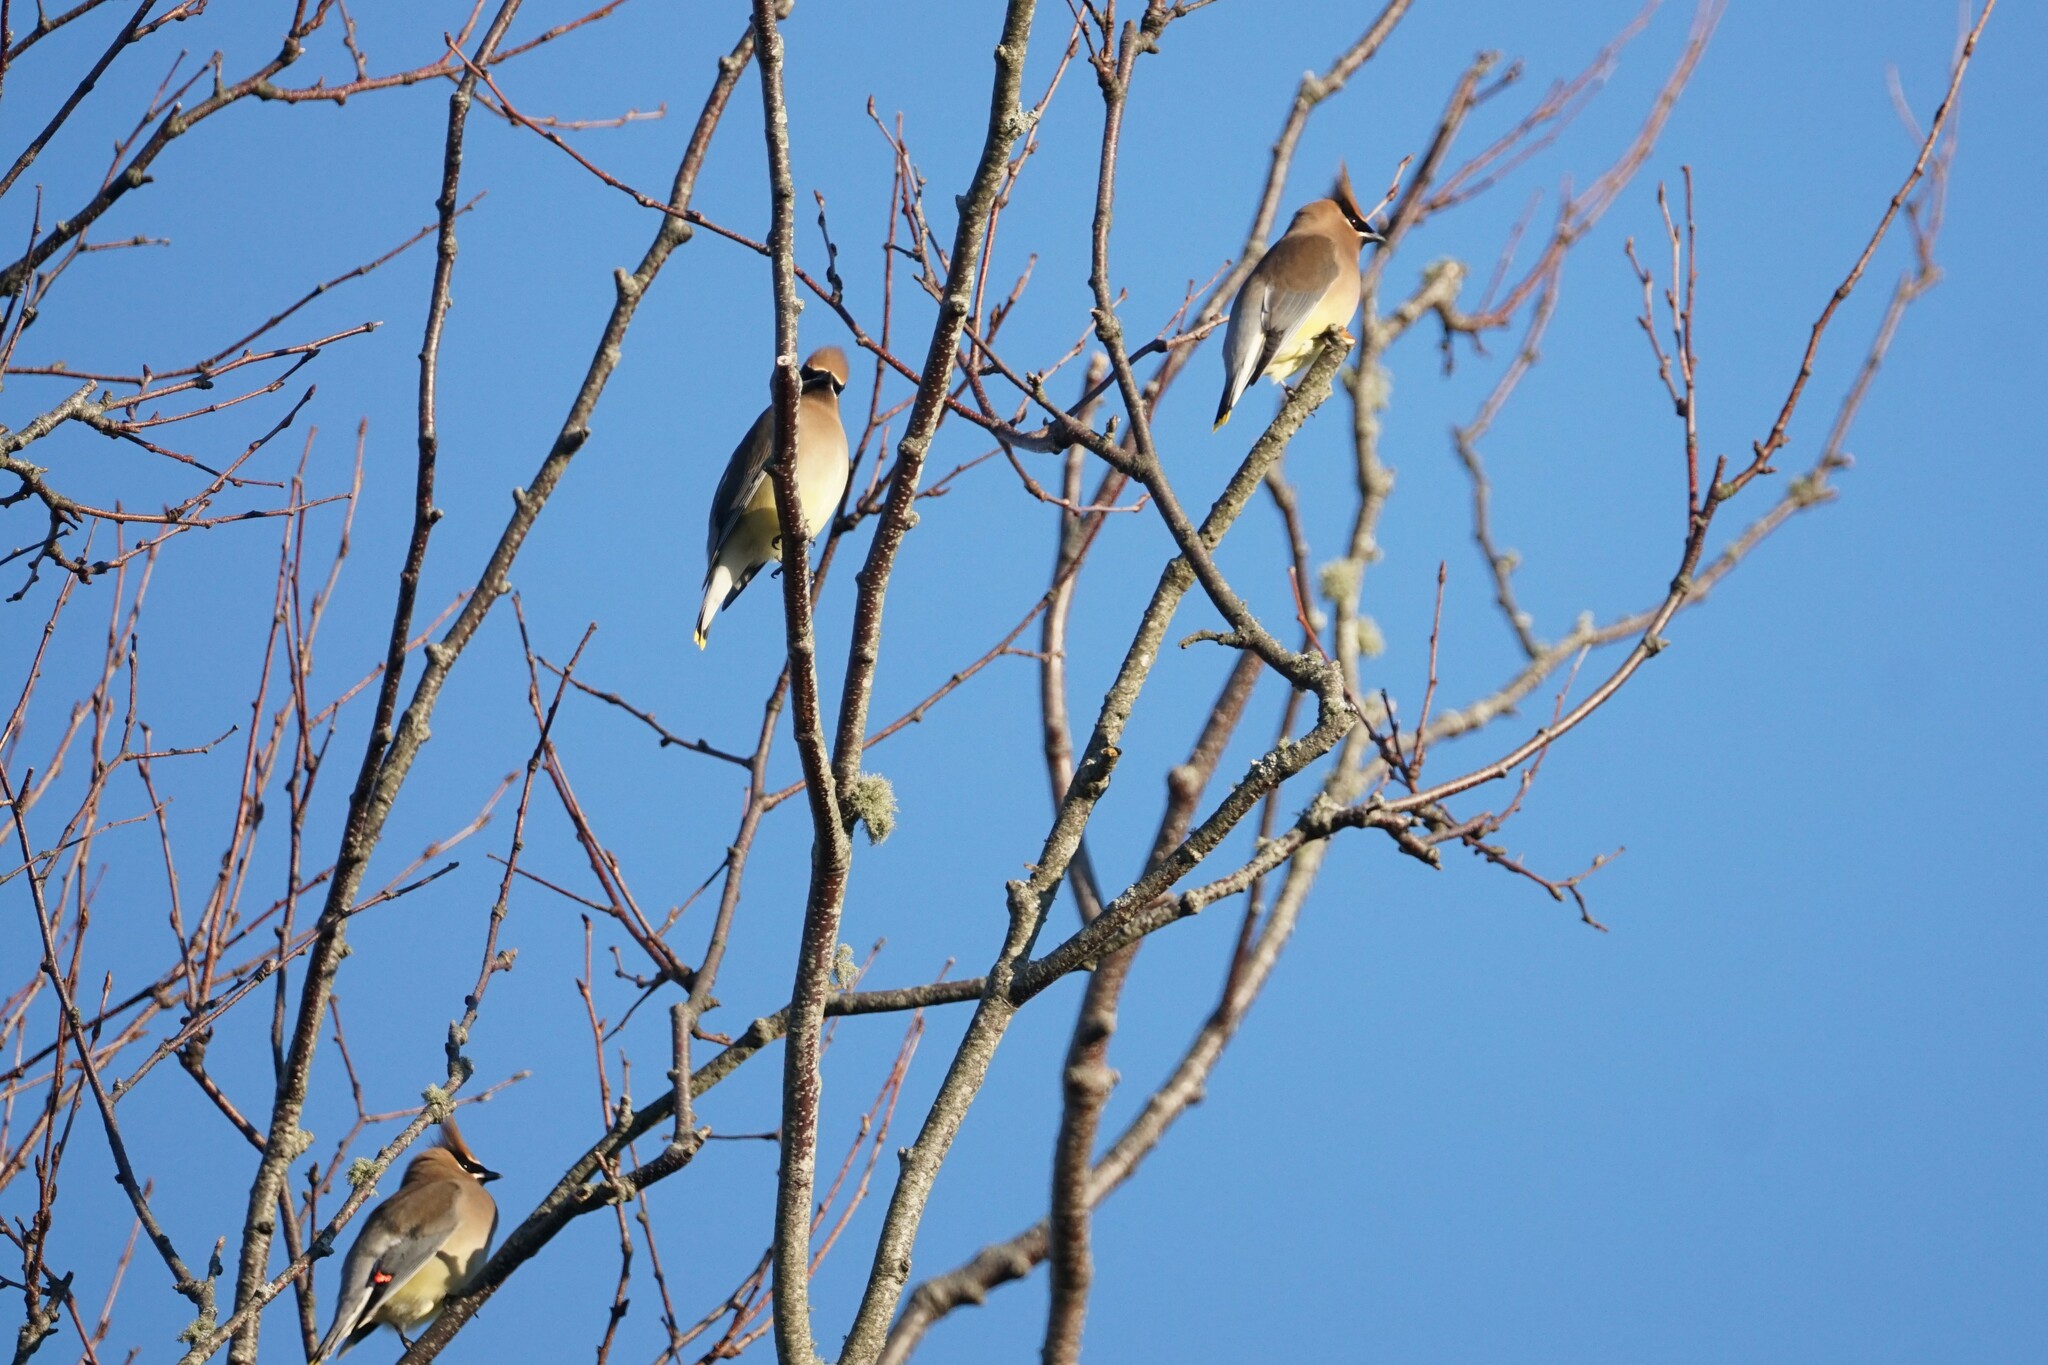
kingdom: Animalia
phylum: Chordata
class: Aves
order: Passeriformes
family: Bombycillidae
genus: Bombycilla
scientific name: Bombycilla cedrorum
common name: Cedar waxwing
